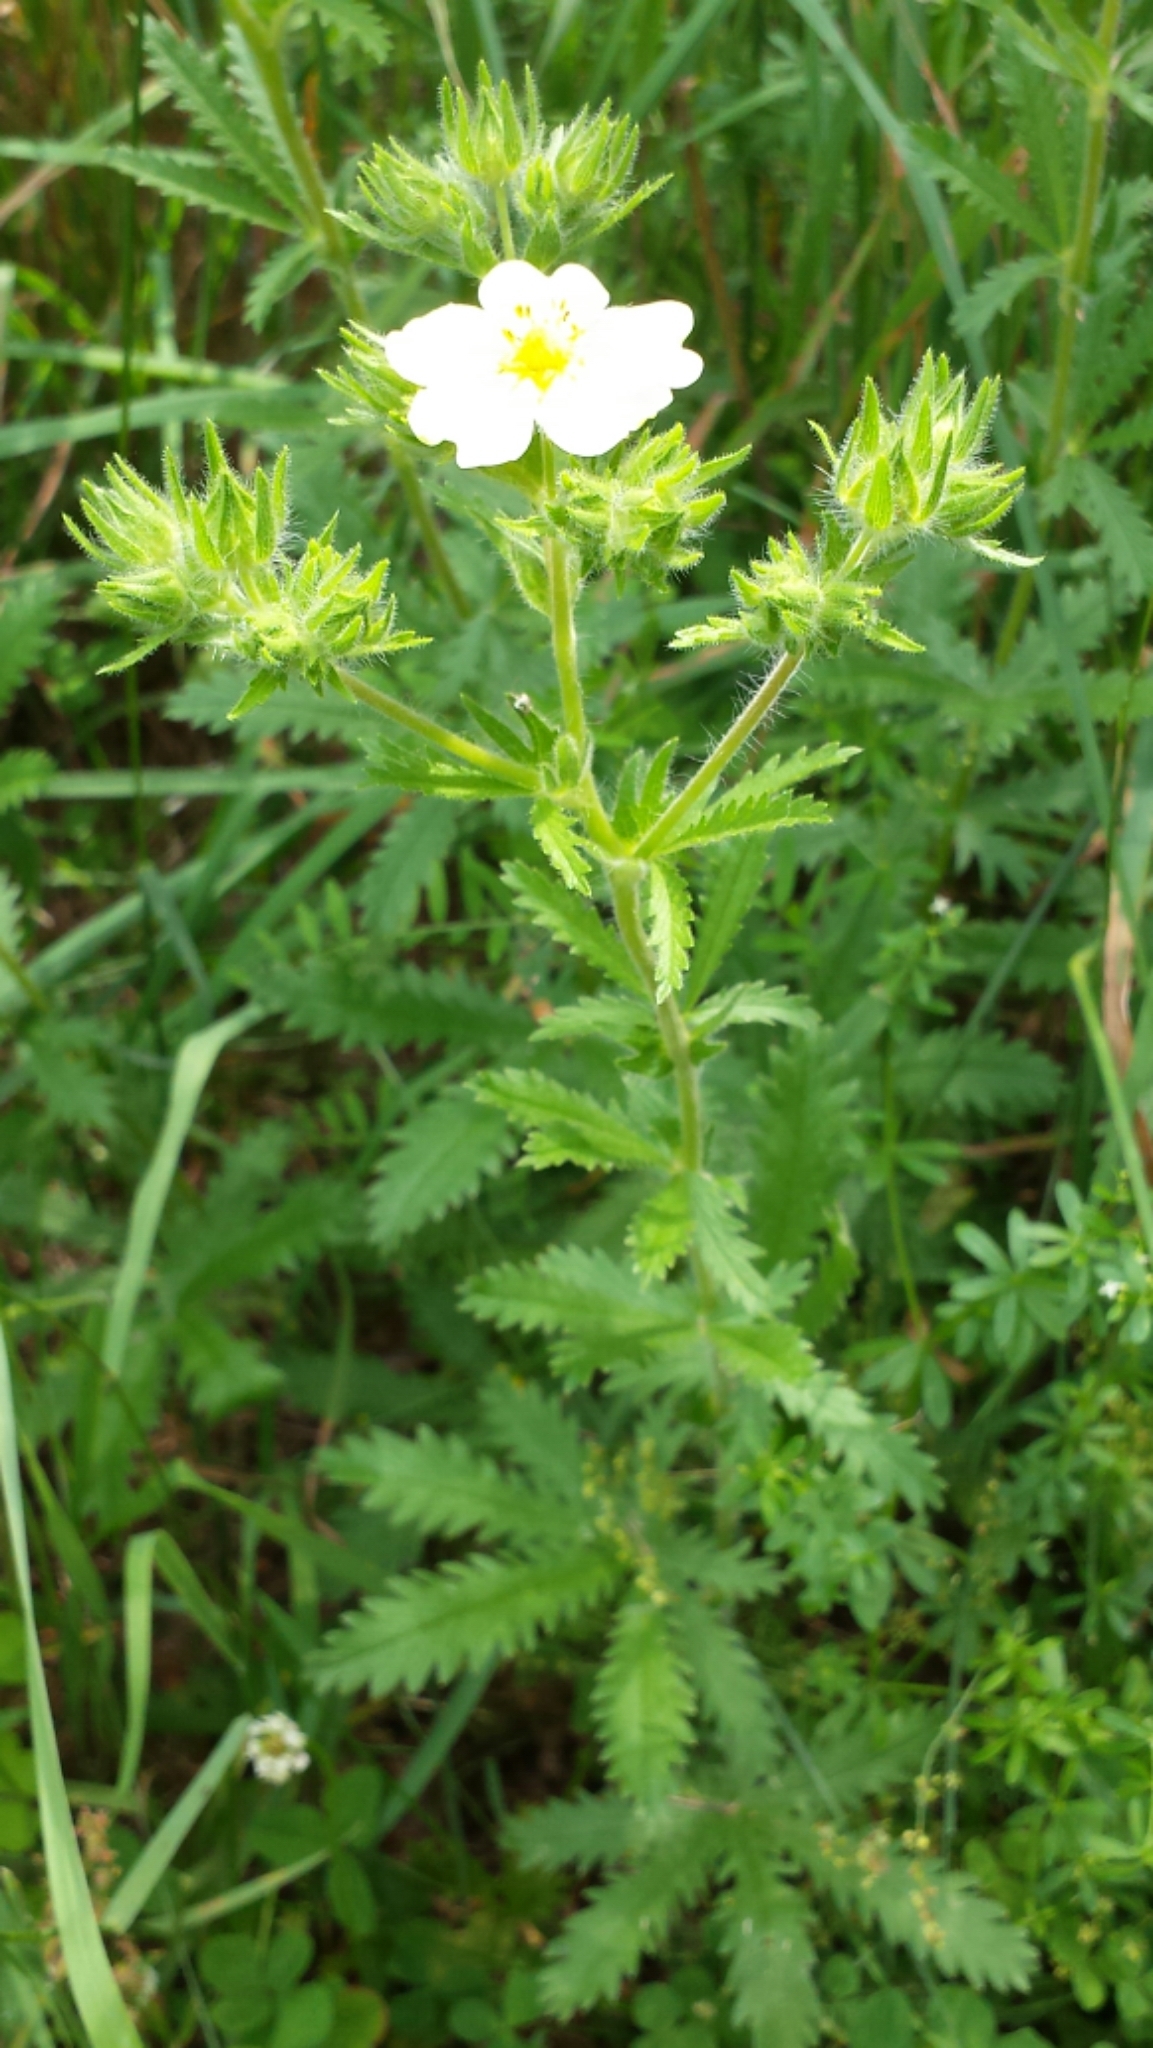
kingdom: Plantae
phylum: Tracheophyta
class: Magnoliopsida
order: Rosales
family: Rosaceae
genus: Potentilla
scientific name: Potentilla recta
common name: Sulphur cinquefoil
